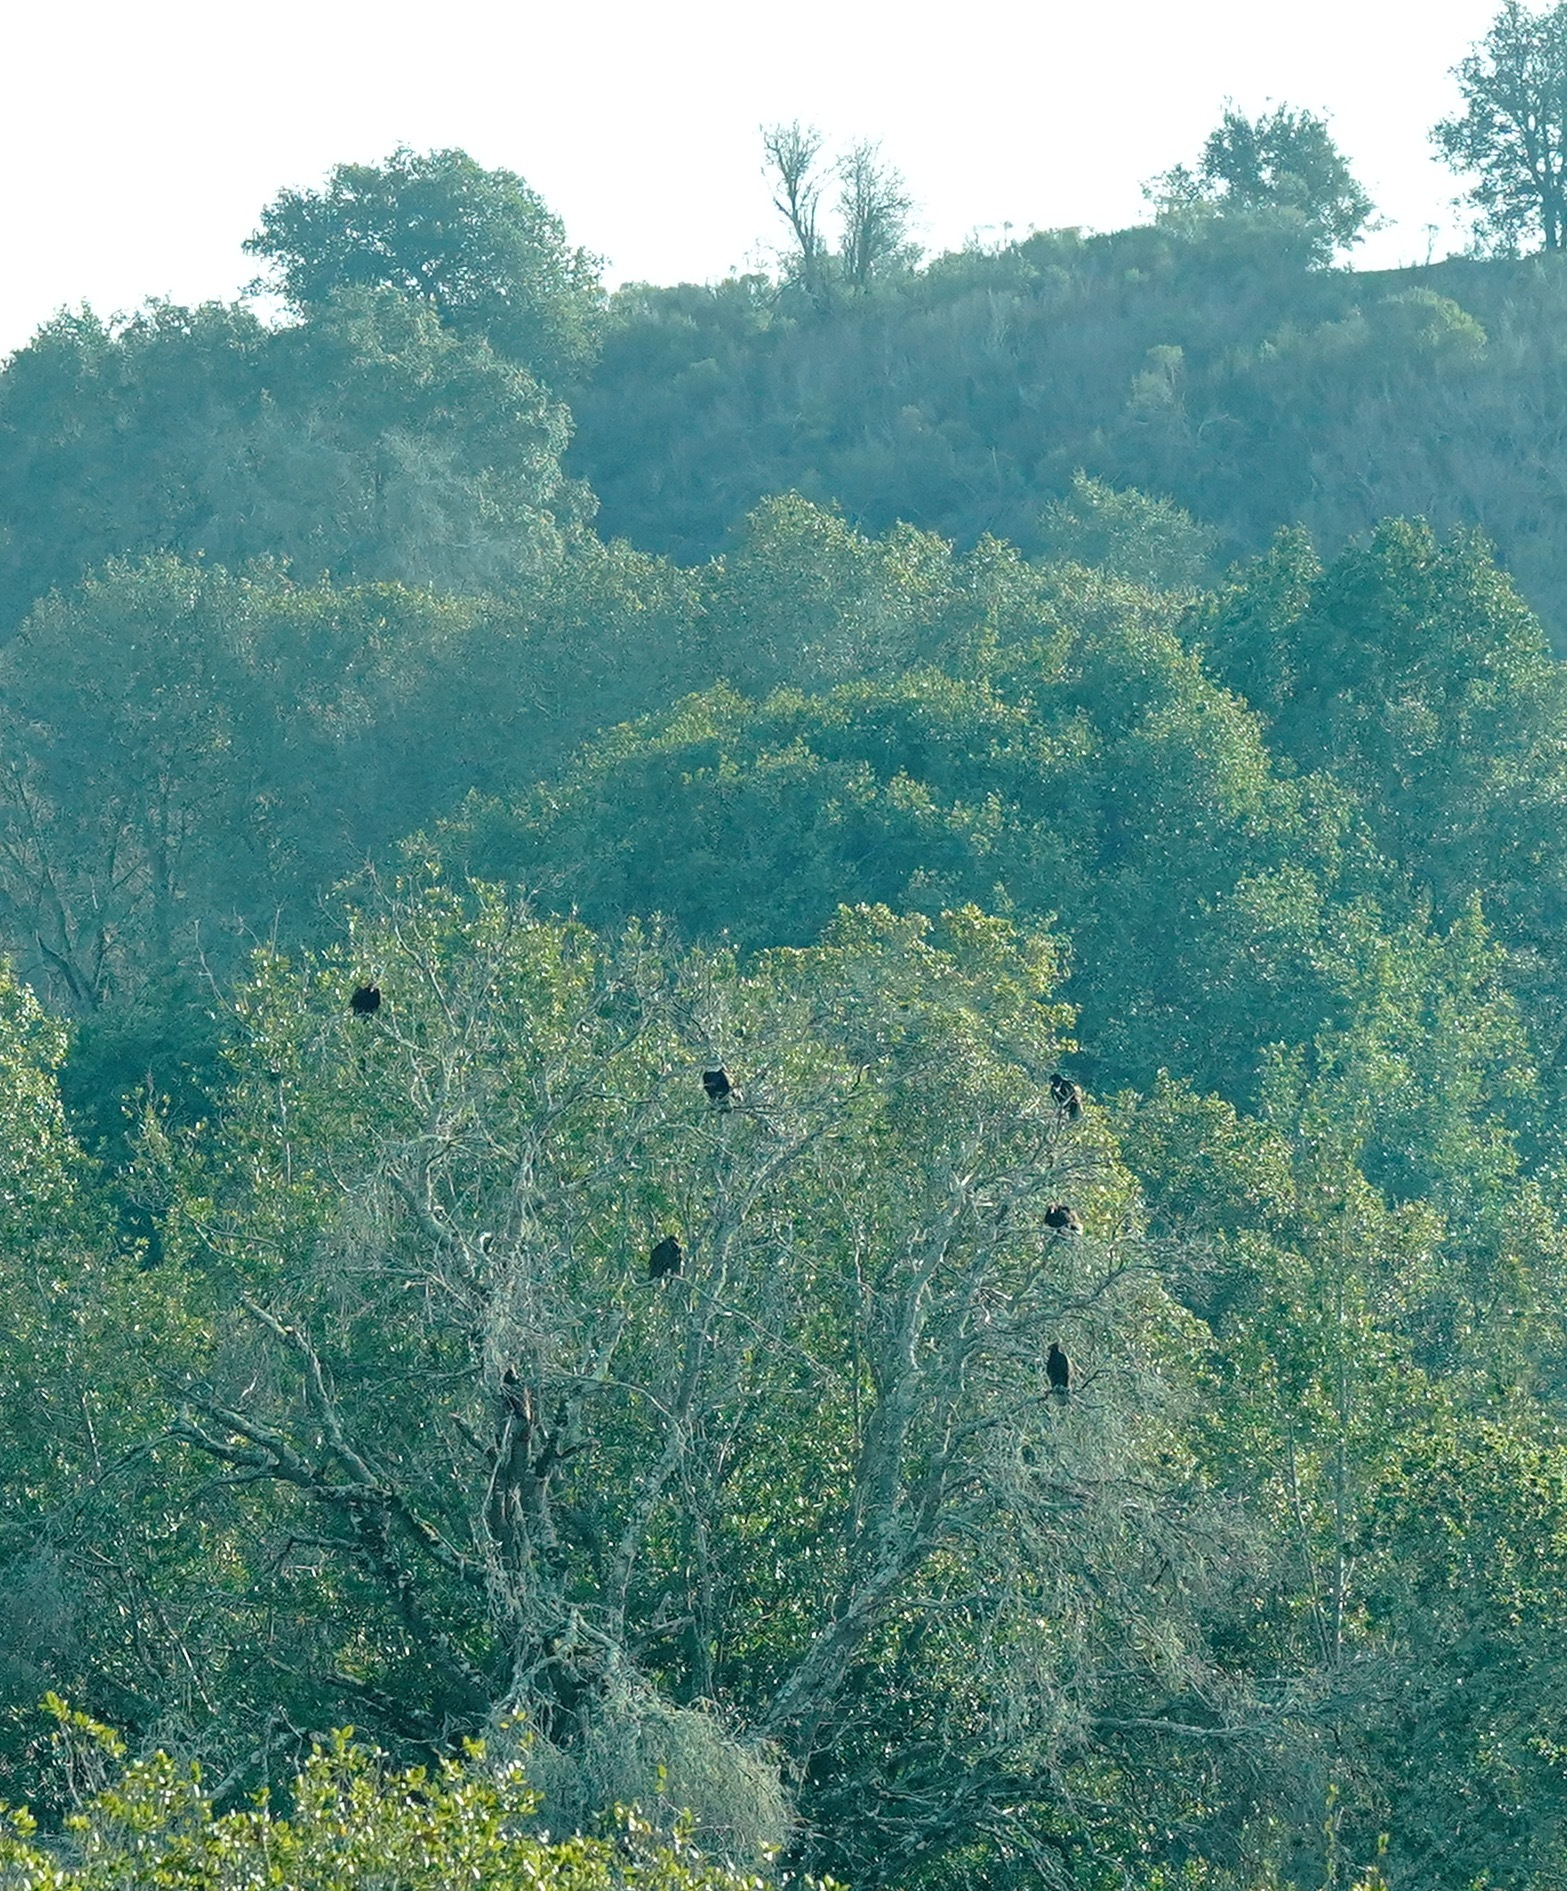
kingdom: Animalia
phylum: Chordata
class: Aves
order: Accipitriformes
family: Cathartidae
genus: Cathartes
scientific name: Cathartes aura
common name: Turkey vulture
